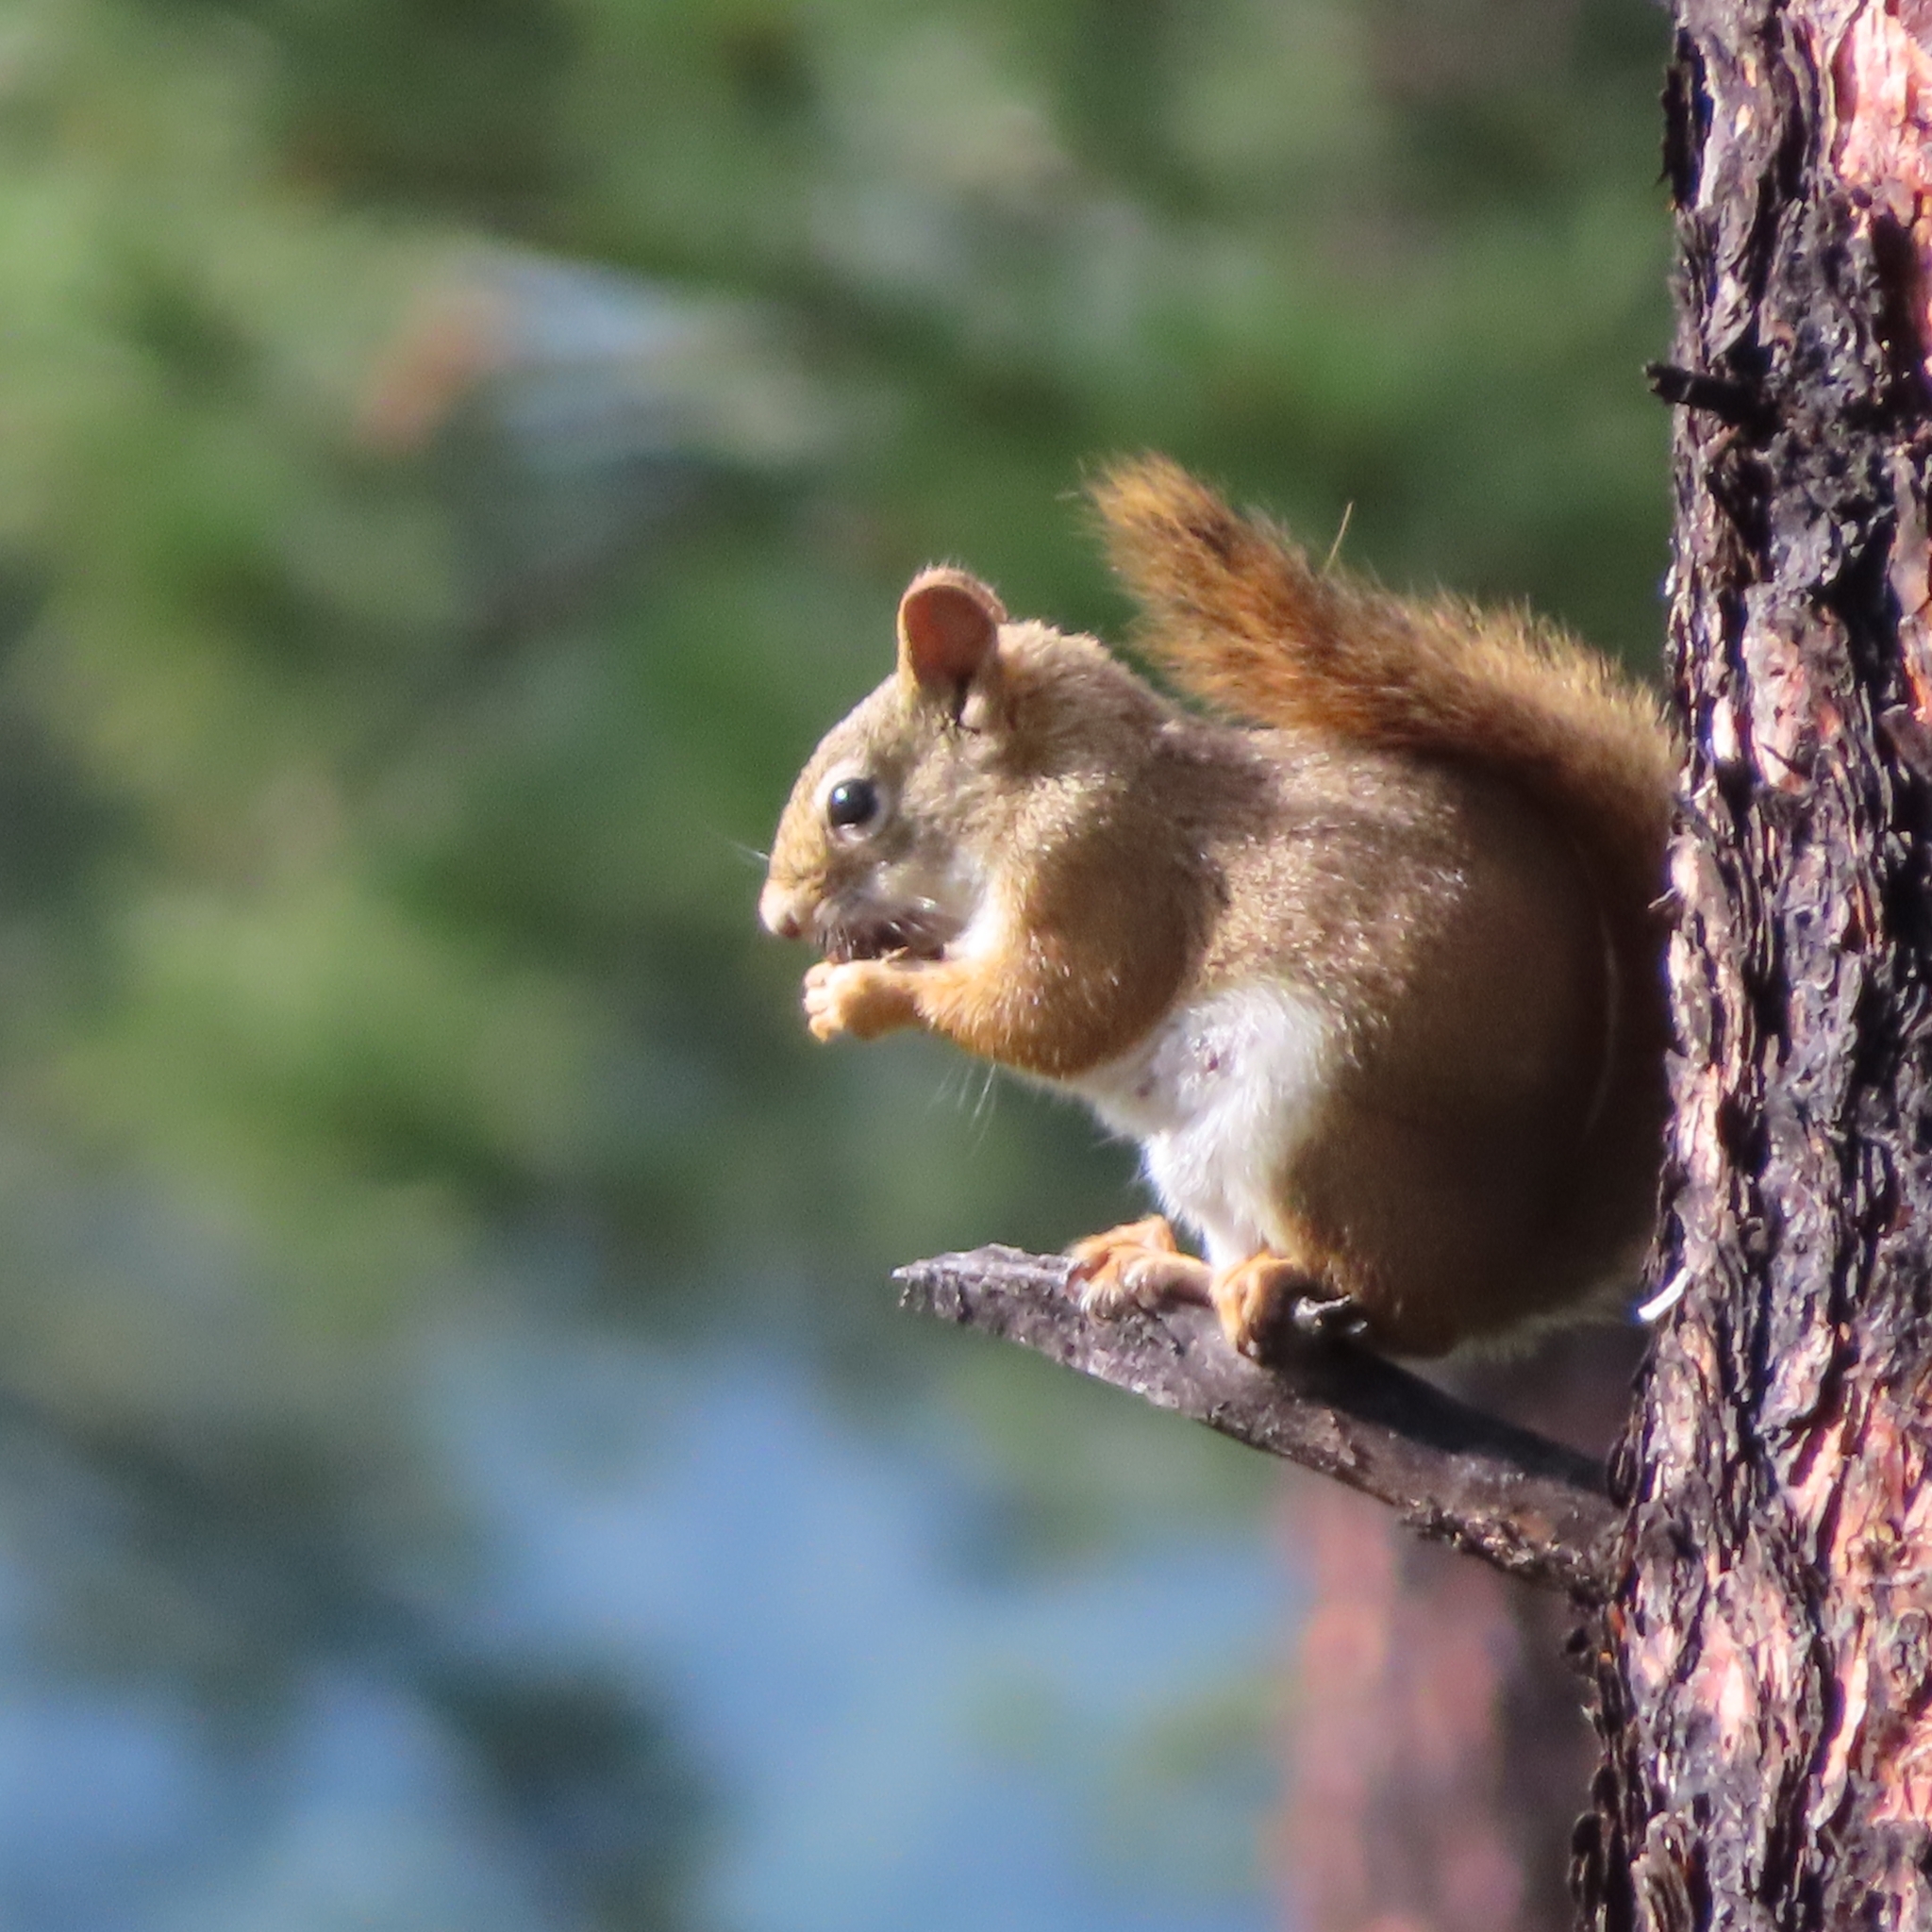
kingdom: Animalia
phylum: Chordata
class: Mammalia
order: Rodentia
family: Sciuridae
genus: Tamiasciurus
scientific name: Tamiasciurus hudsonicus
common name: Red squirrel
